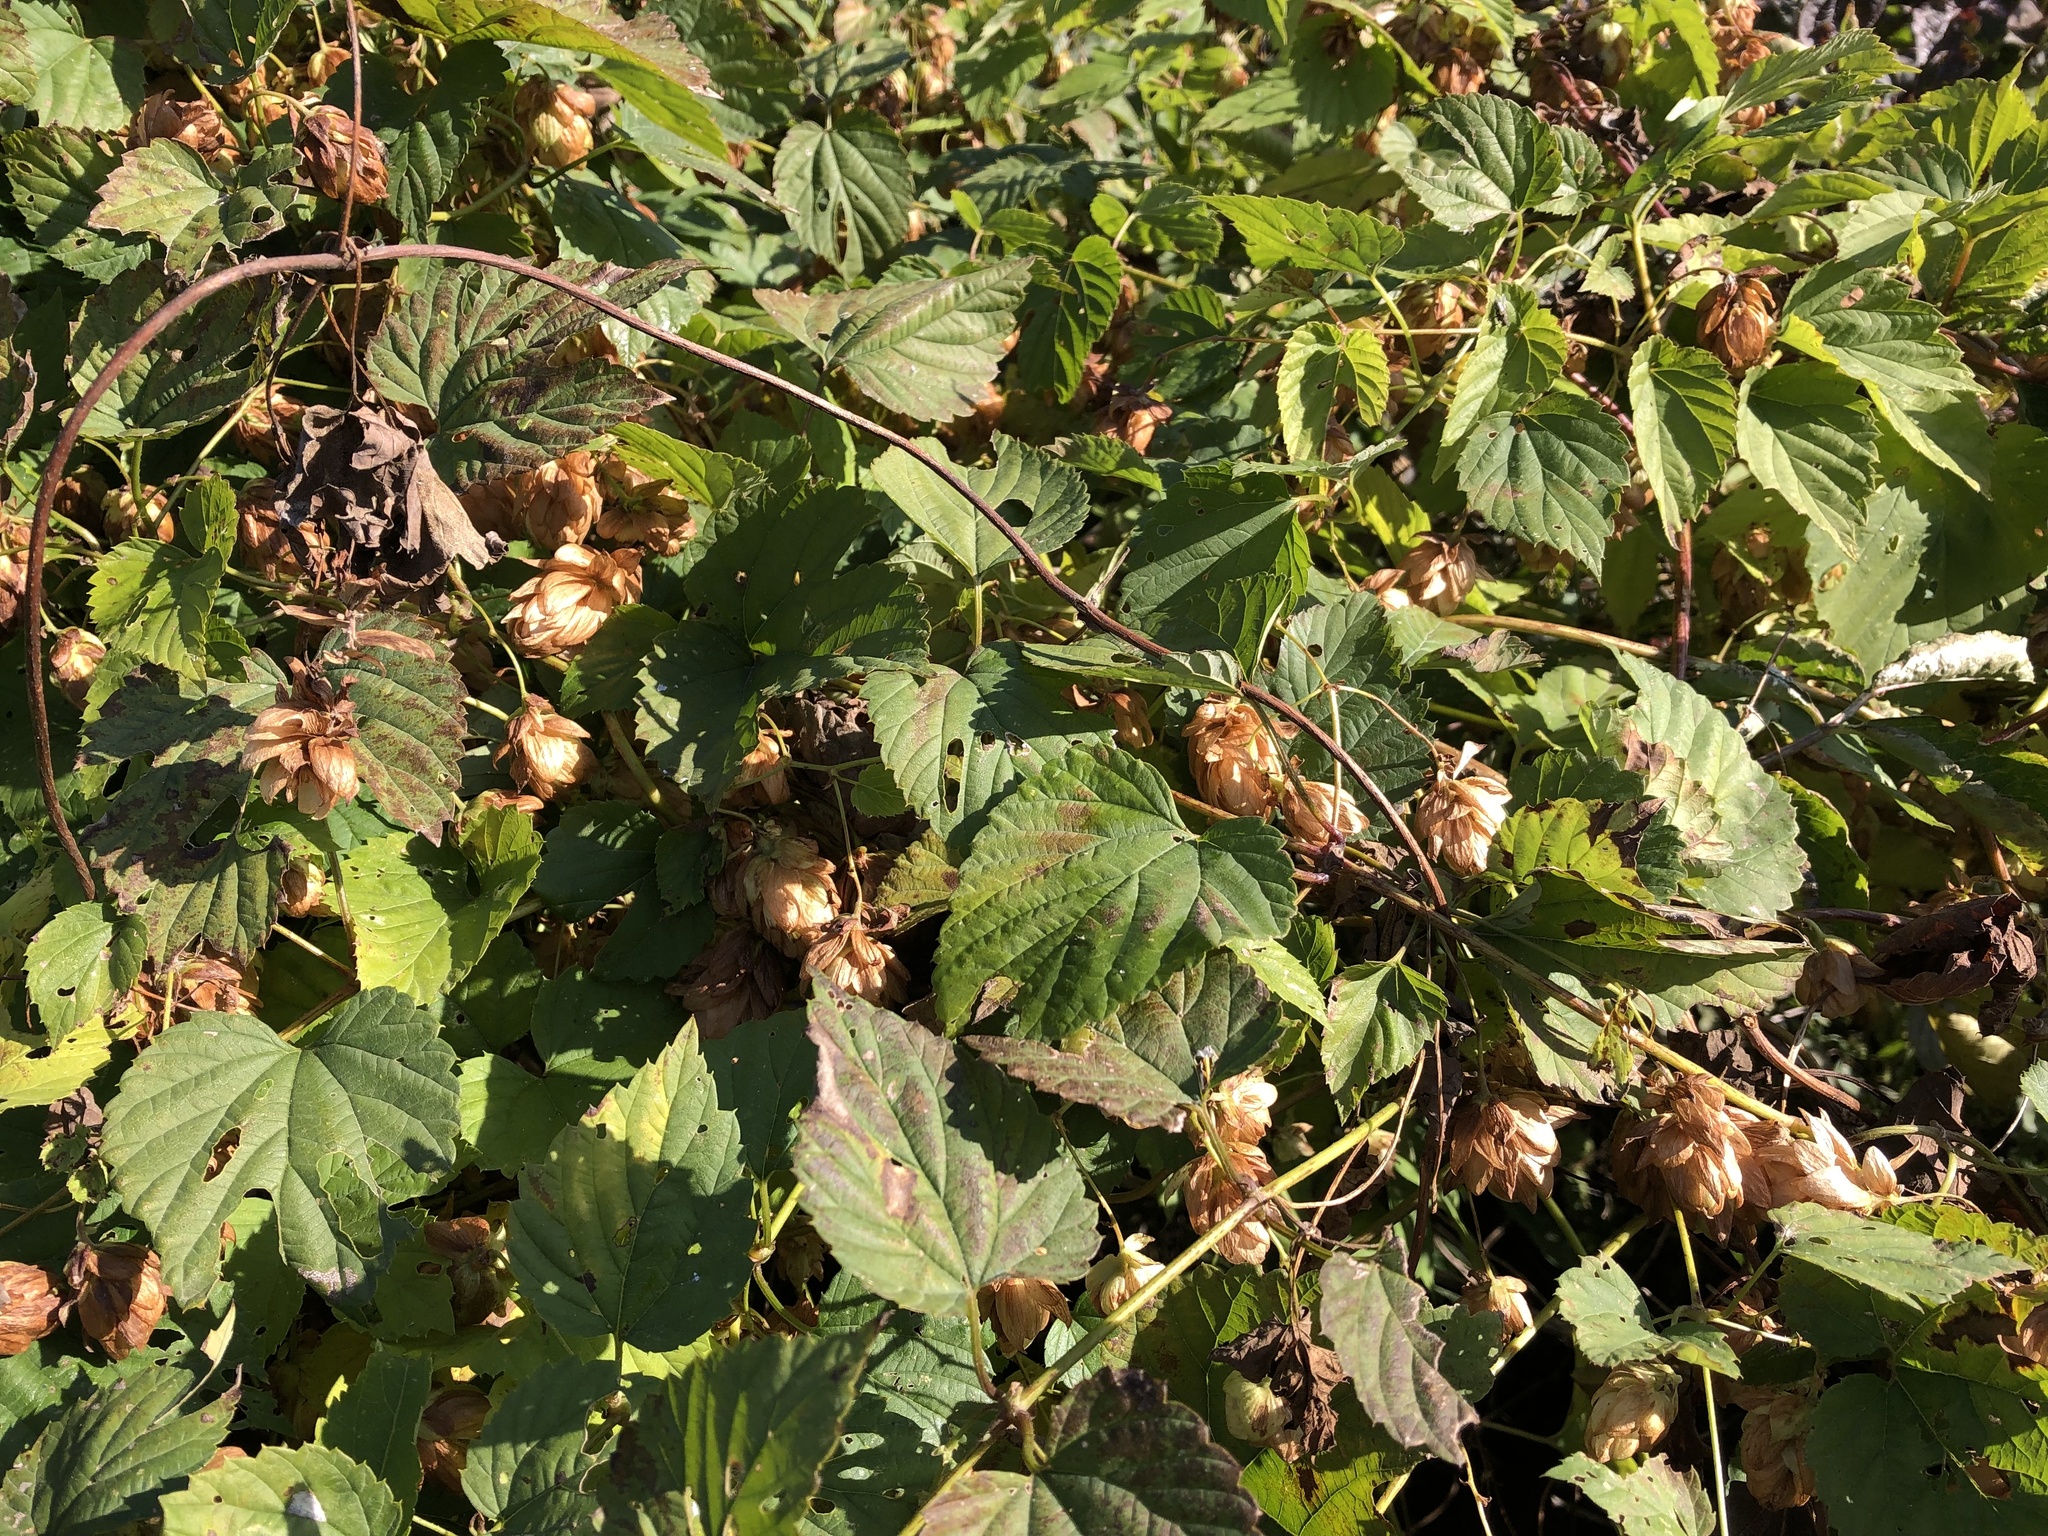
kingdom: Plantae
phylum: Tracheophyta
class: Magnoliopsida
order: Rosales
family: Cannabaceae
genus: Humulus
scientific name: Humulus lupulus
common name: Hop
